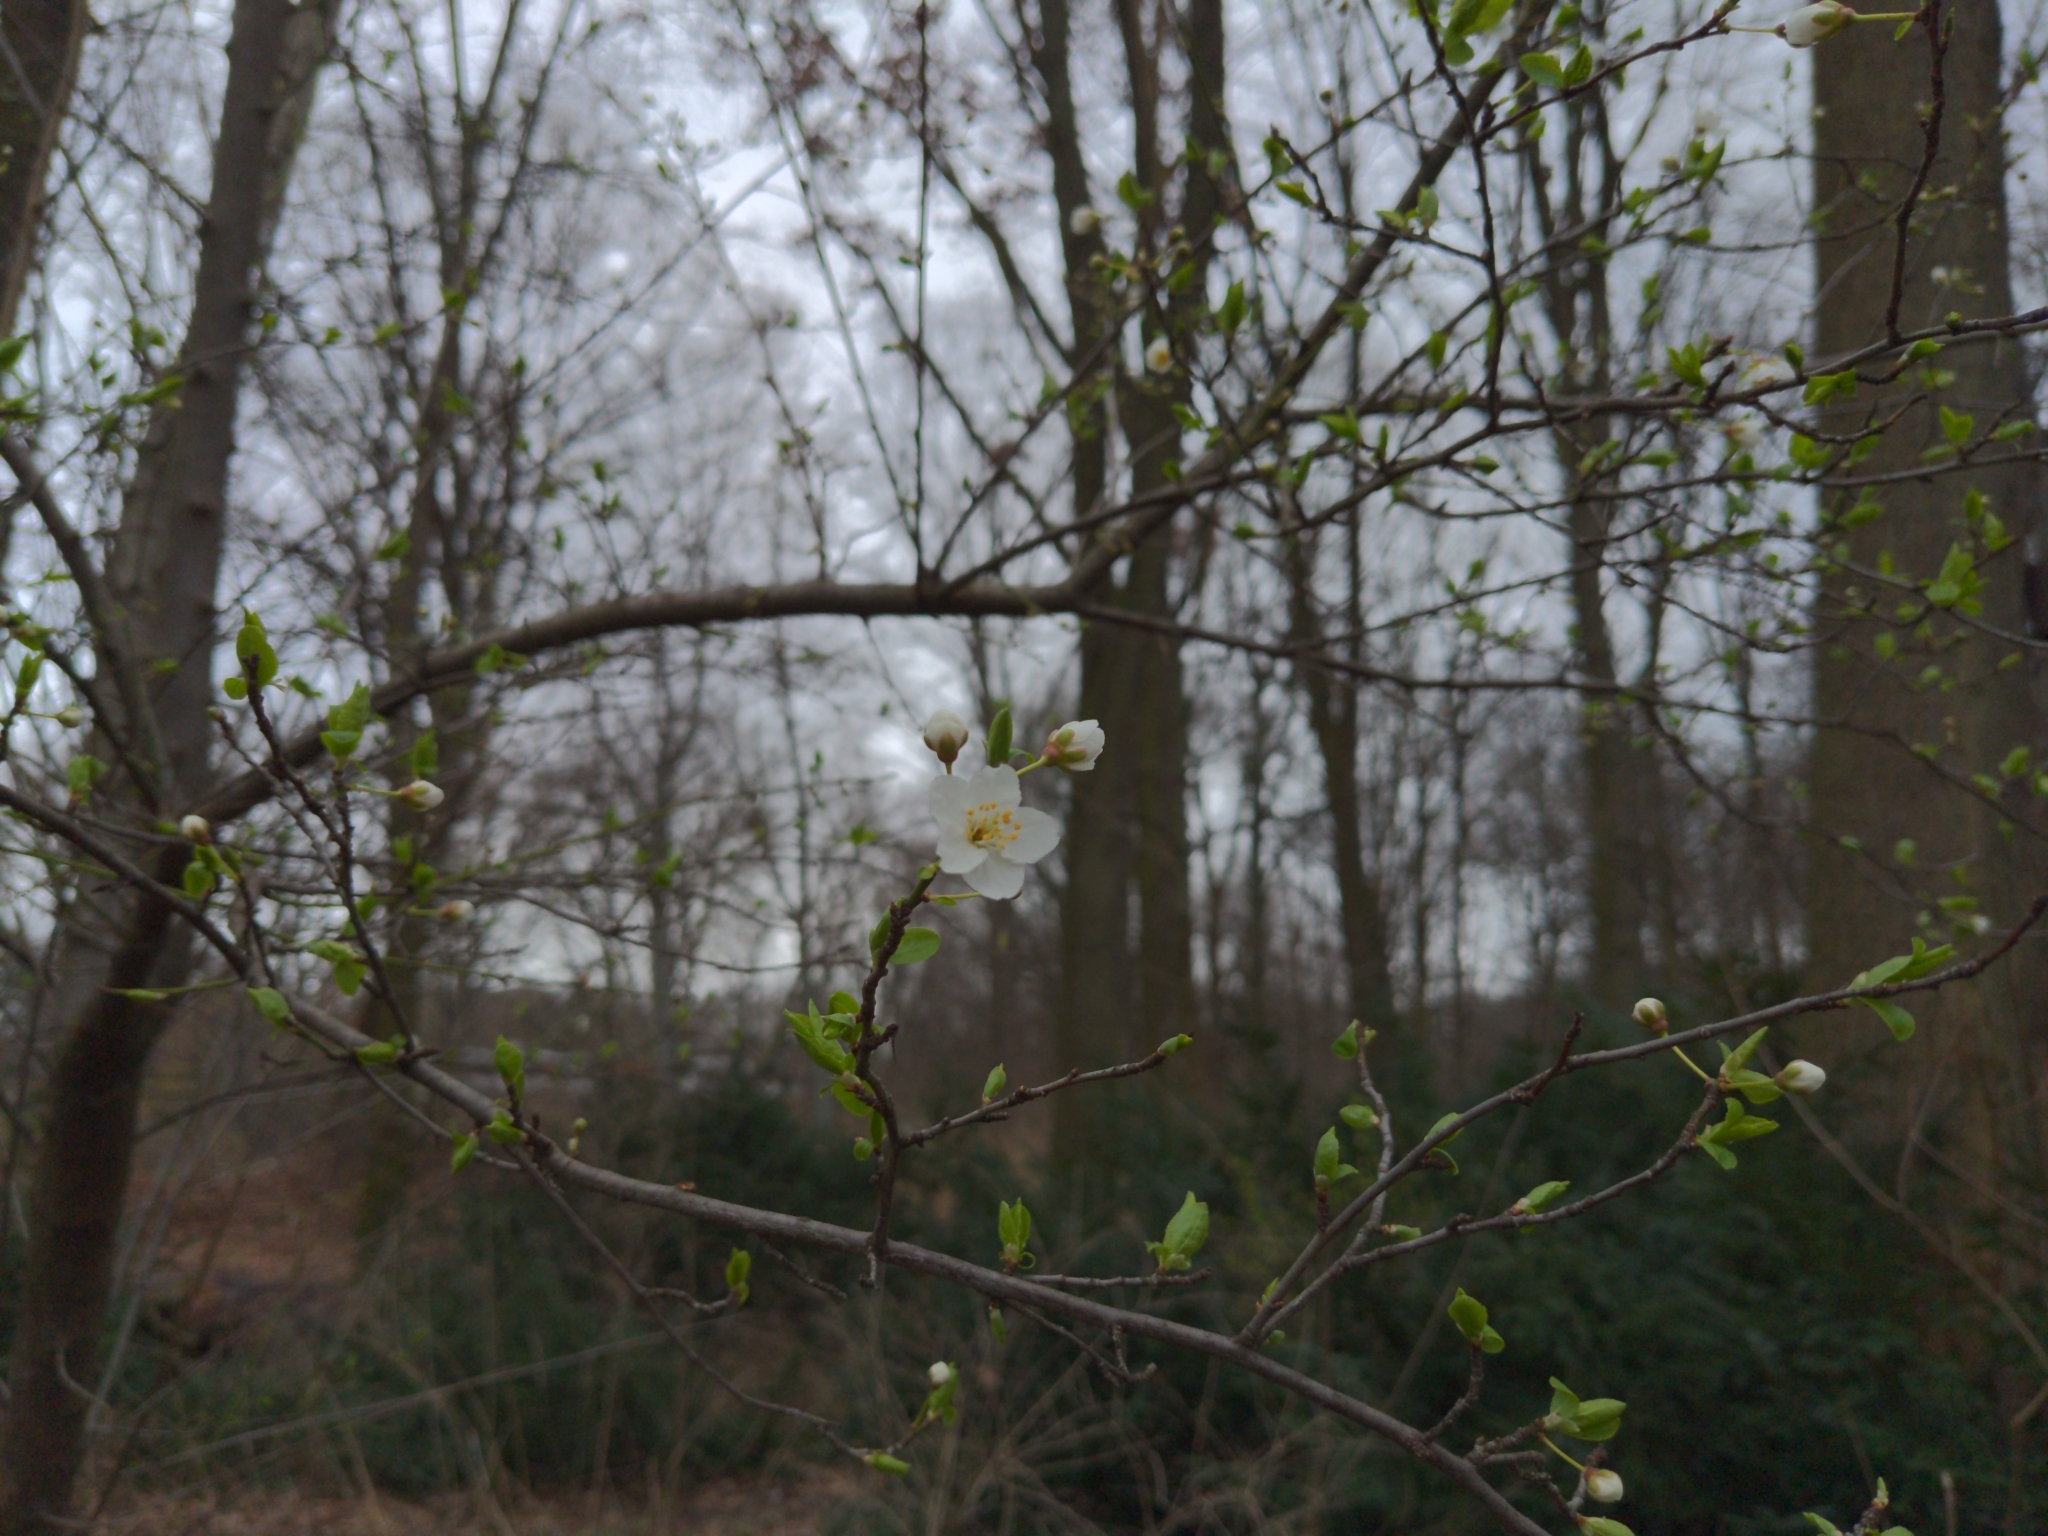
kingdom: Plantae
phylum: Tracheophyta
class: Magnoliopsida
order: Rosales
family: Rosaceae
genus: Prunus
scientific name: Prunus cerasifera
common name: Cherry plum
